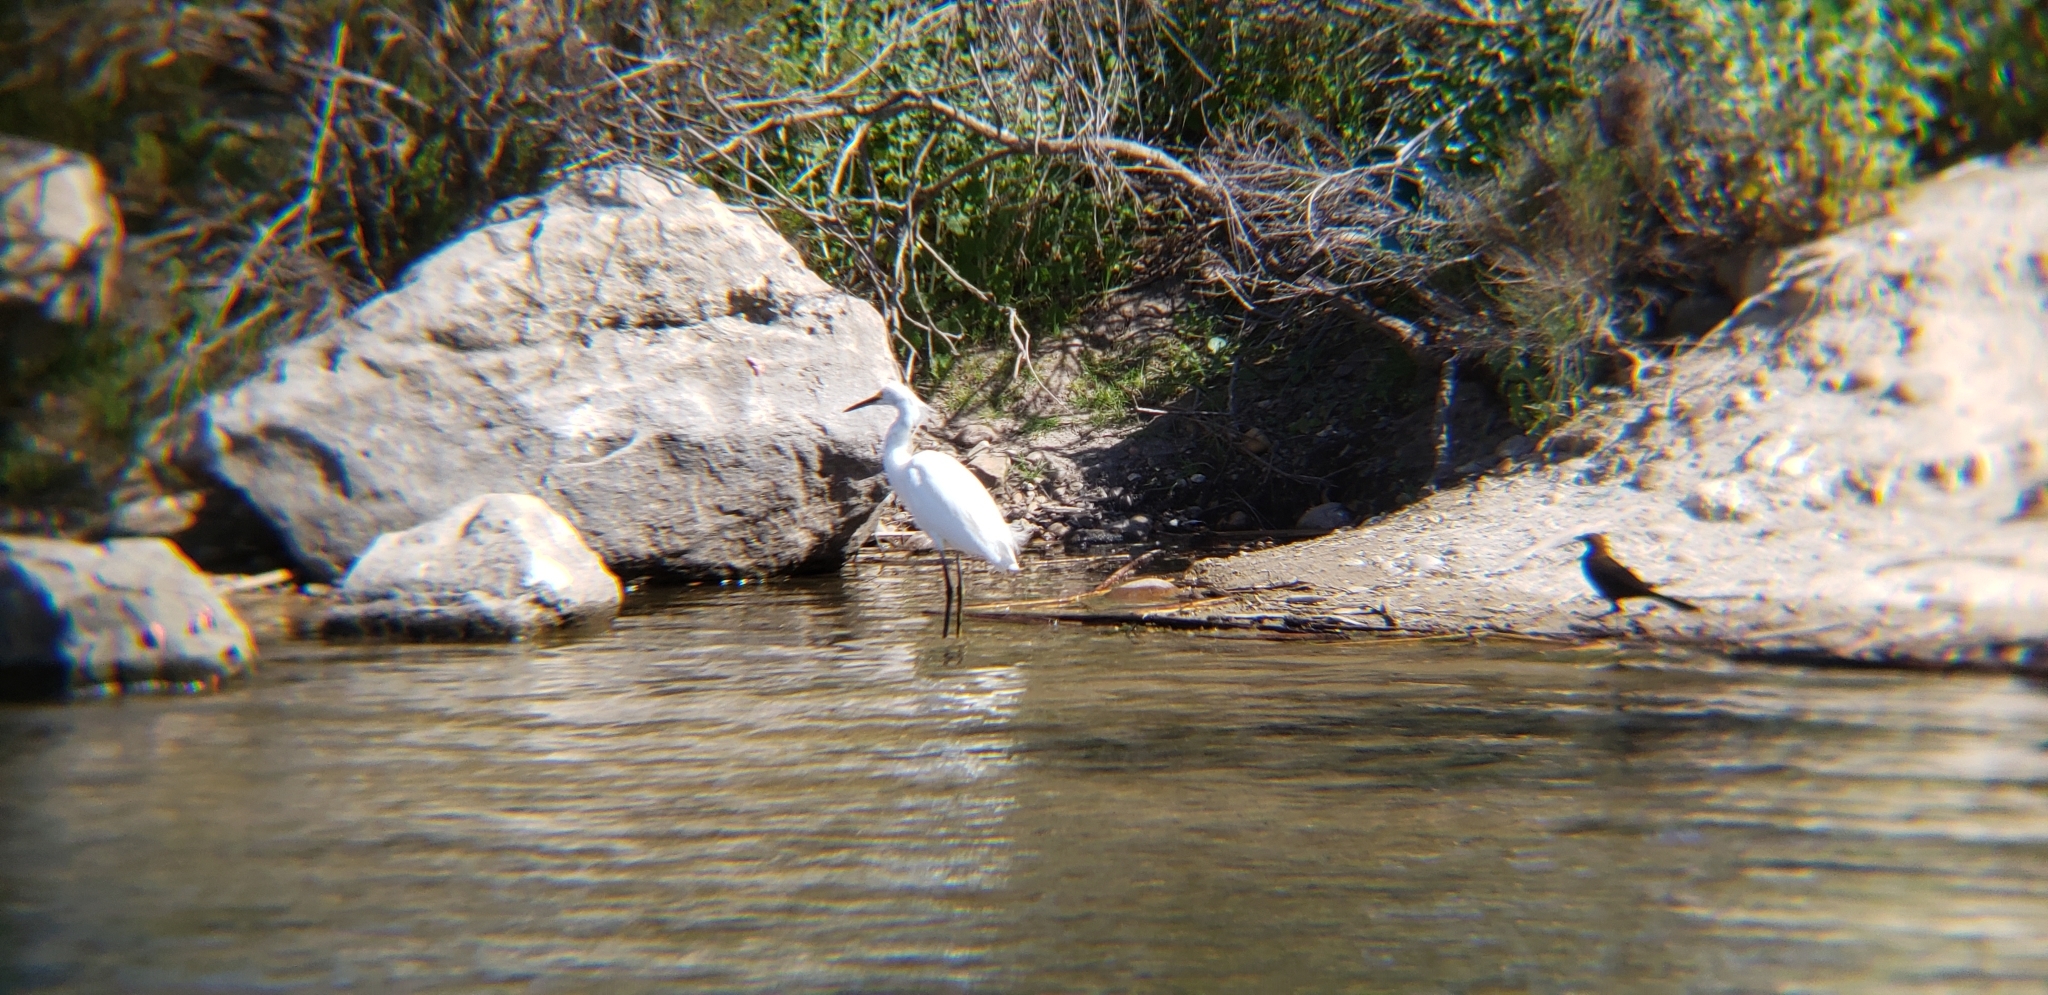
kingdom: Animalia
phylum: Chordata
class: Aves
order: Pelecaniformes
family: Ardeidae
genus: Egretta
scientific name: Egretta thula
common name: Snowy egret
